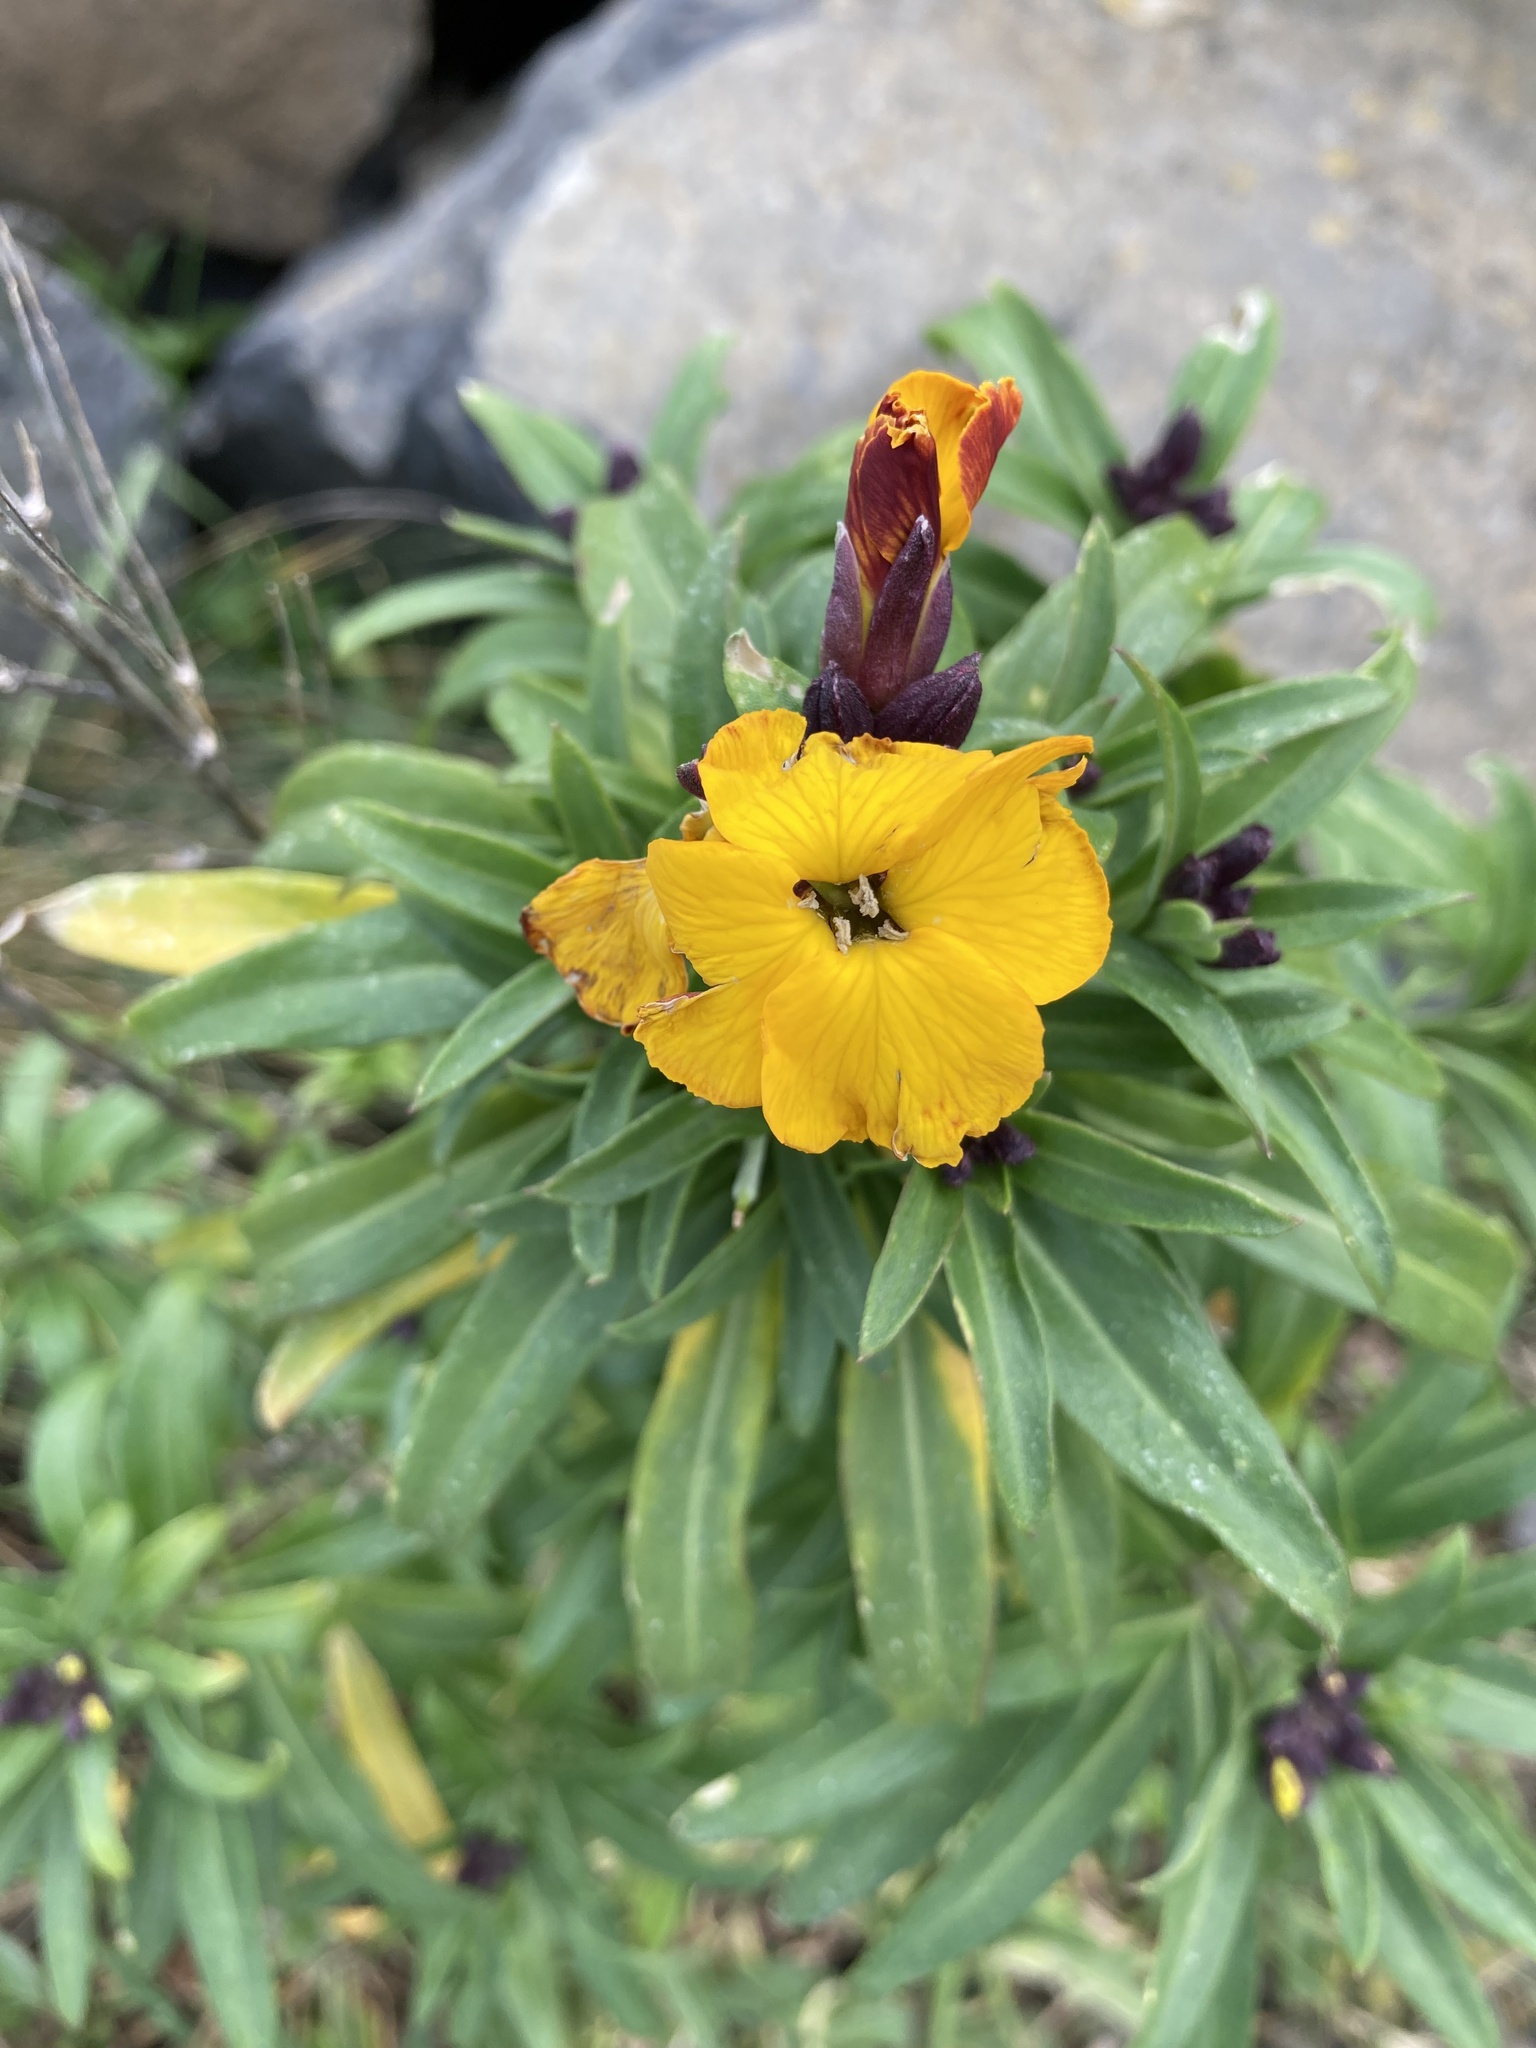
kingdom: Plantae
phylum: Tracheophyta
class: Magnoliopsida
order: Brassicales
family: Brassicaceae
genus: Erysimum
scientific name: Erysimum cheiri
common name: Wallflower
